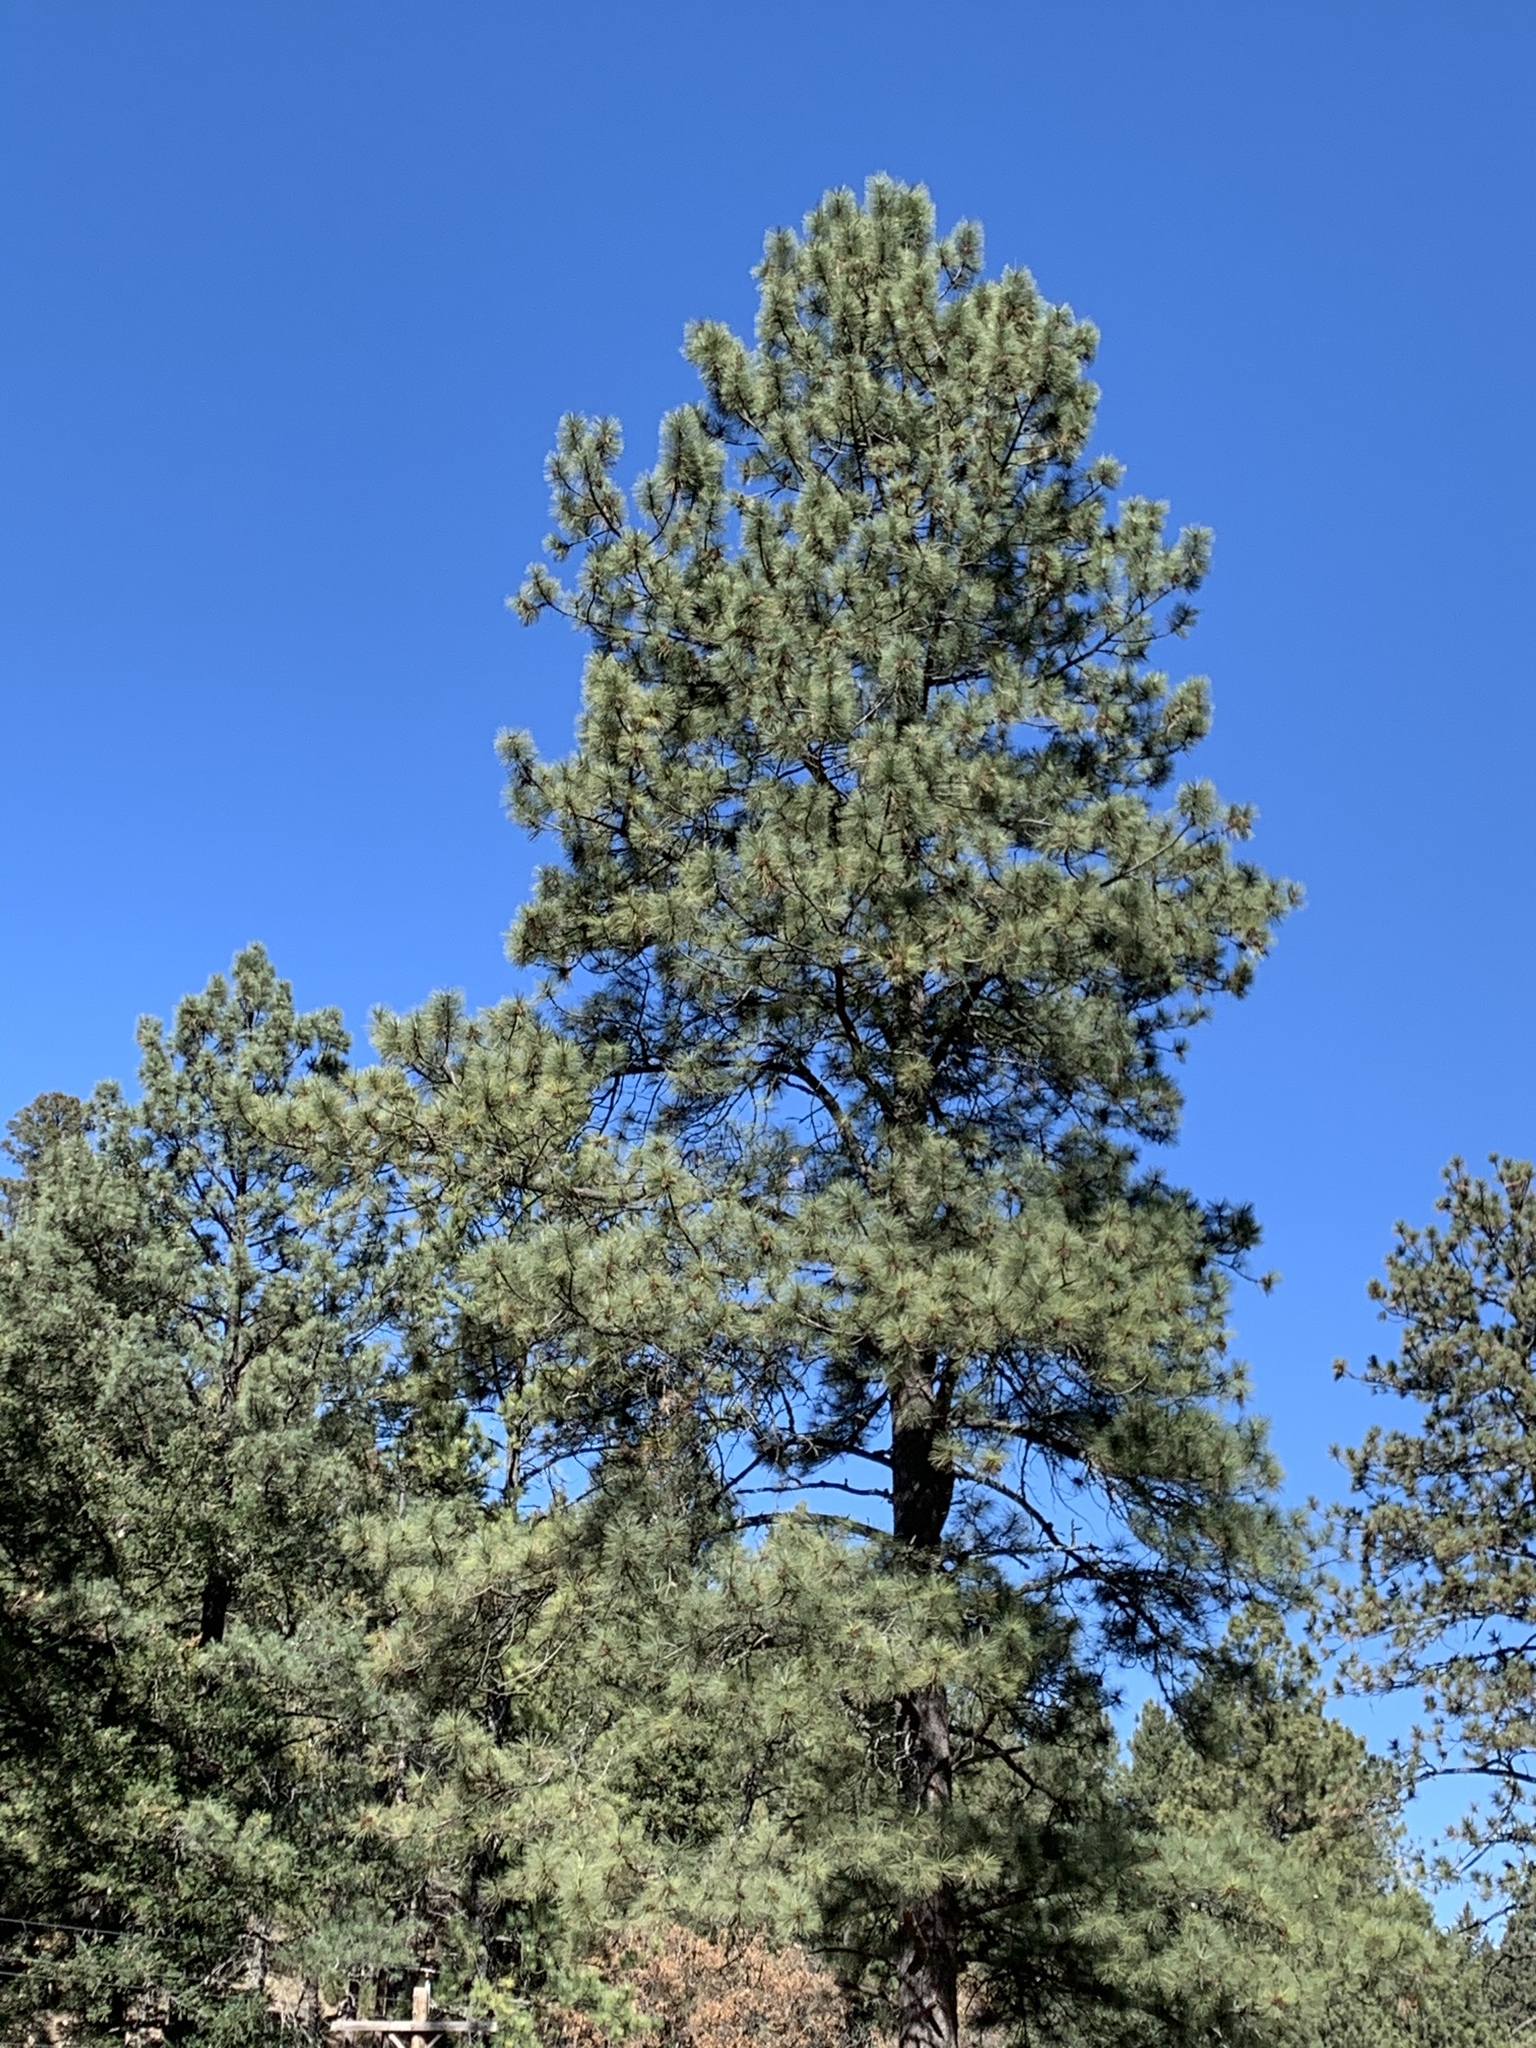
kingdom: Plantae
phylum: Tracheophyta
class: Pinopsida
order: Pinales
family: Pinaceae
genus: Pinus
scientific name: Pinus ponderosa
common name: Western yellow-pine
